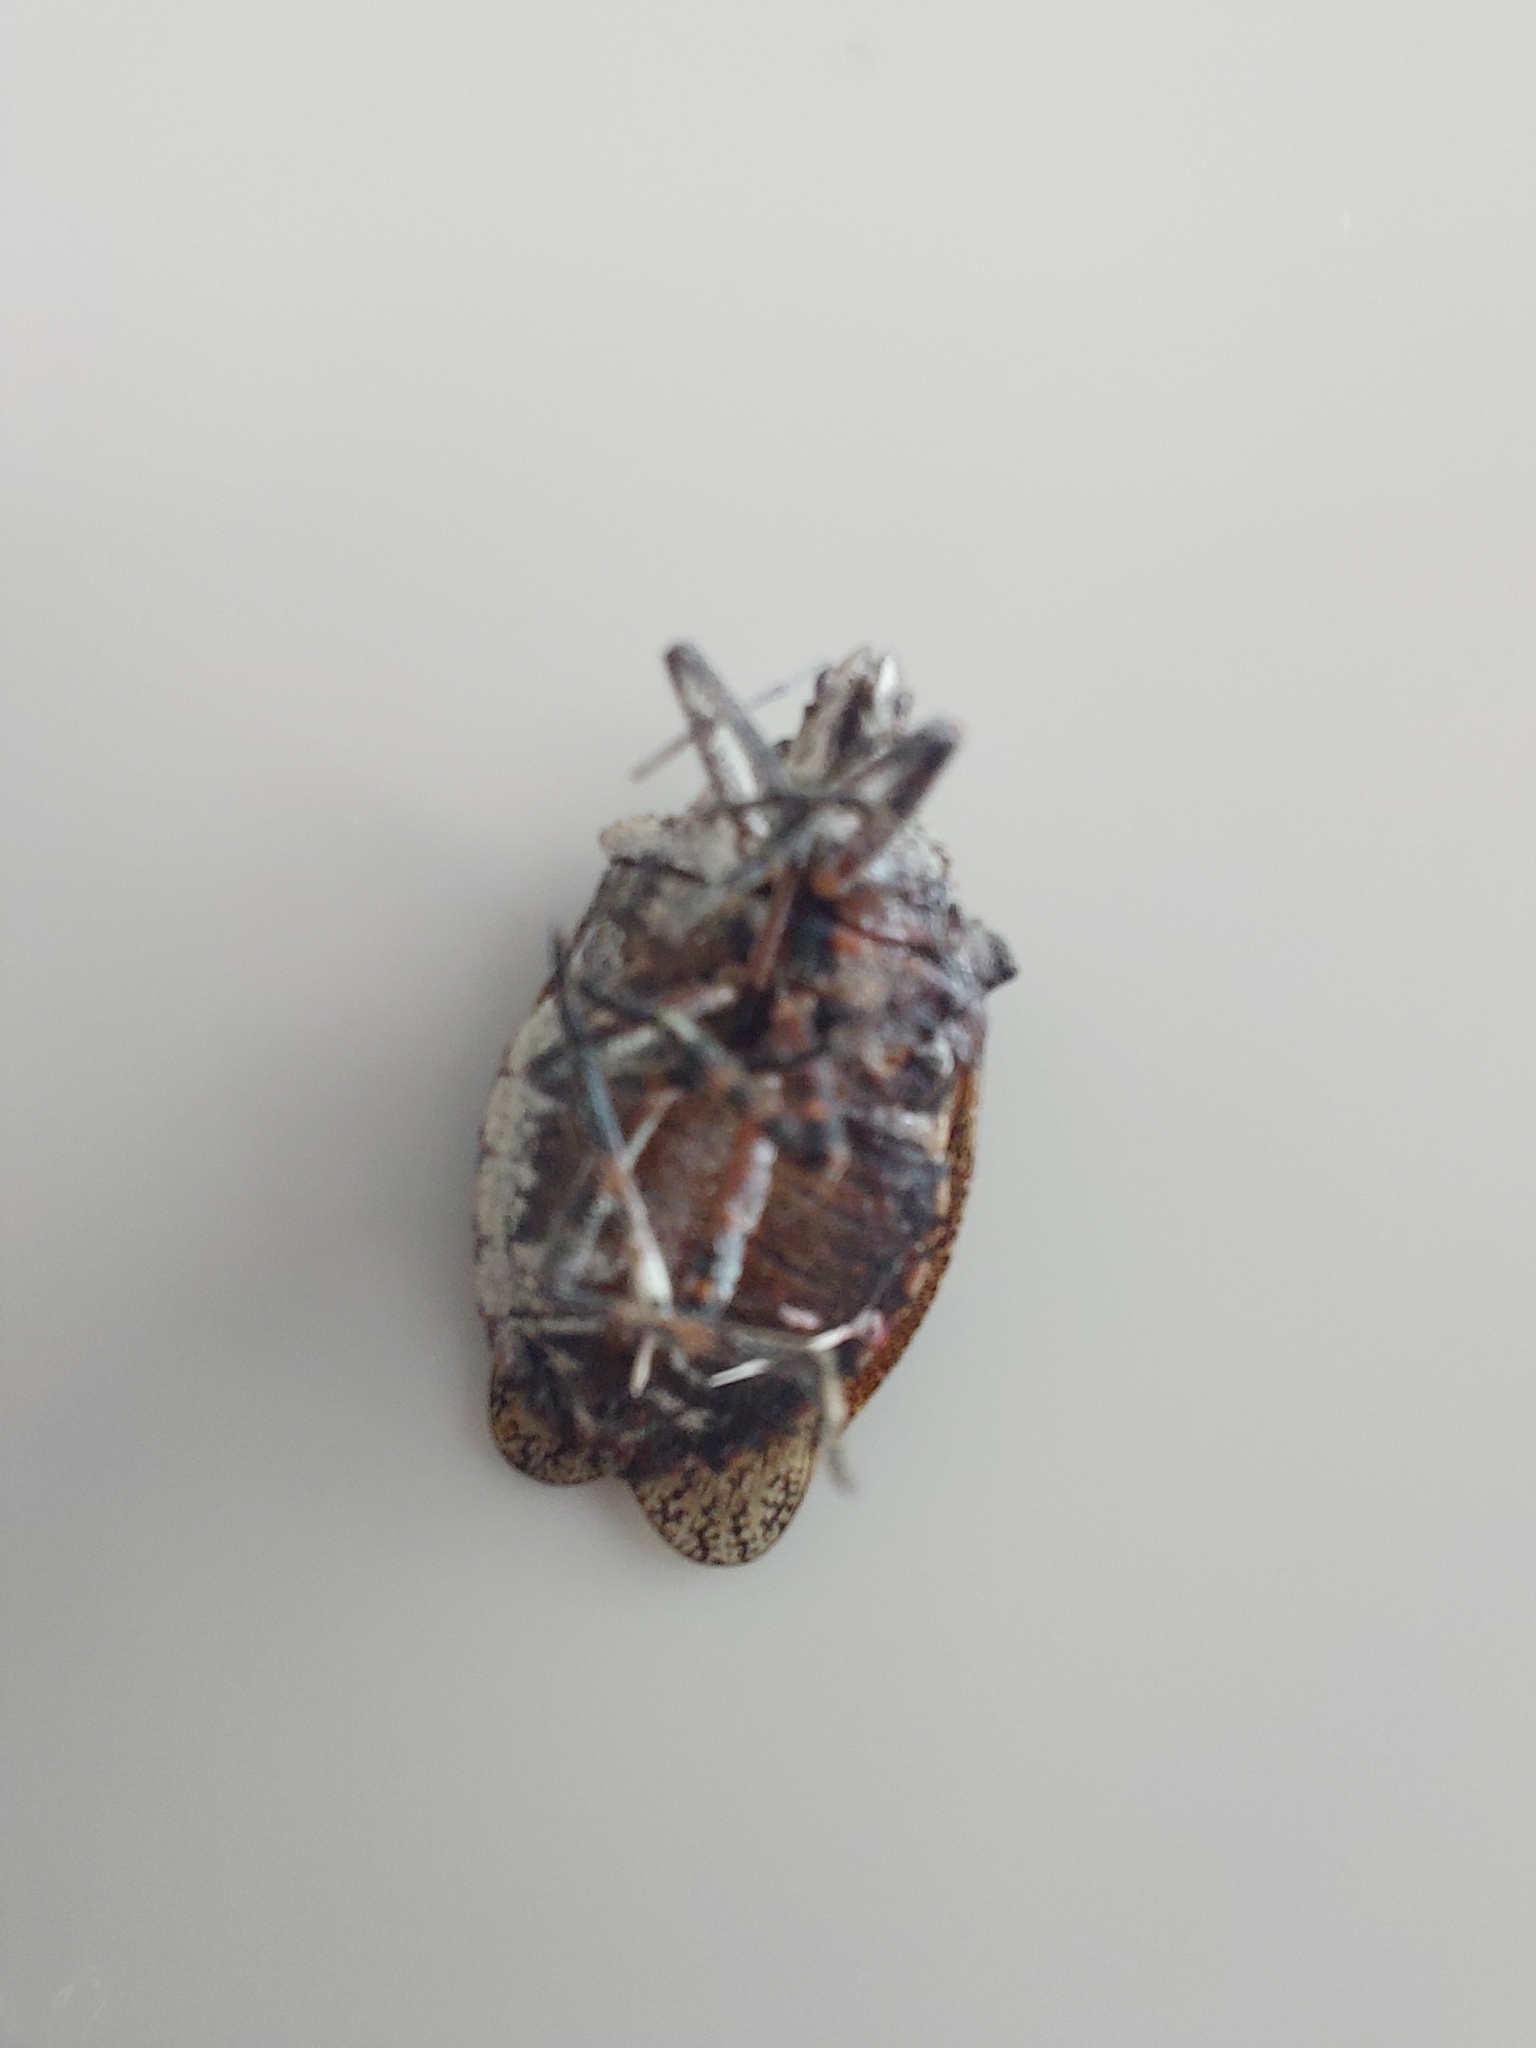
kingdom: Animalia
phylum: Arthropoda
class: Insecta
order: Hemiptera
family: Pentatomidae
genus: Brochymena
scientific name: Brochymena quadripustulata
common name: Four-humped stink bug
